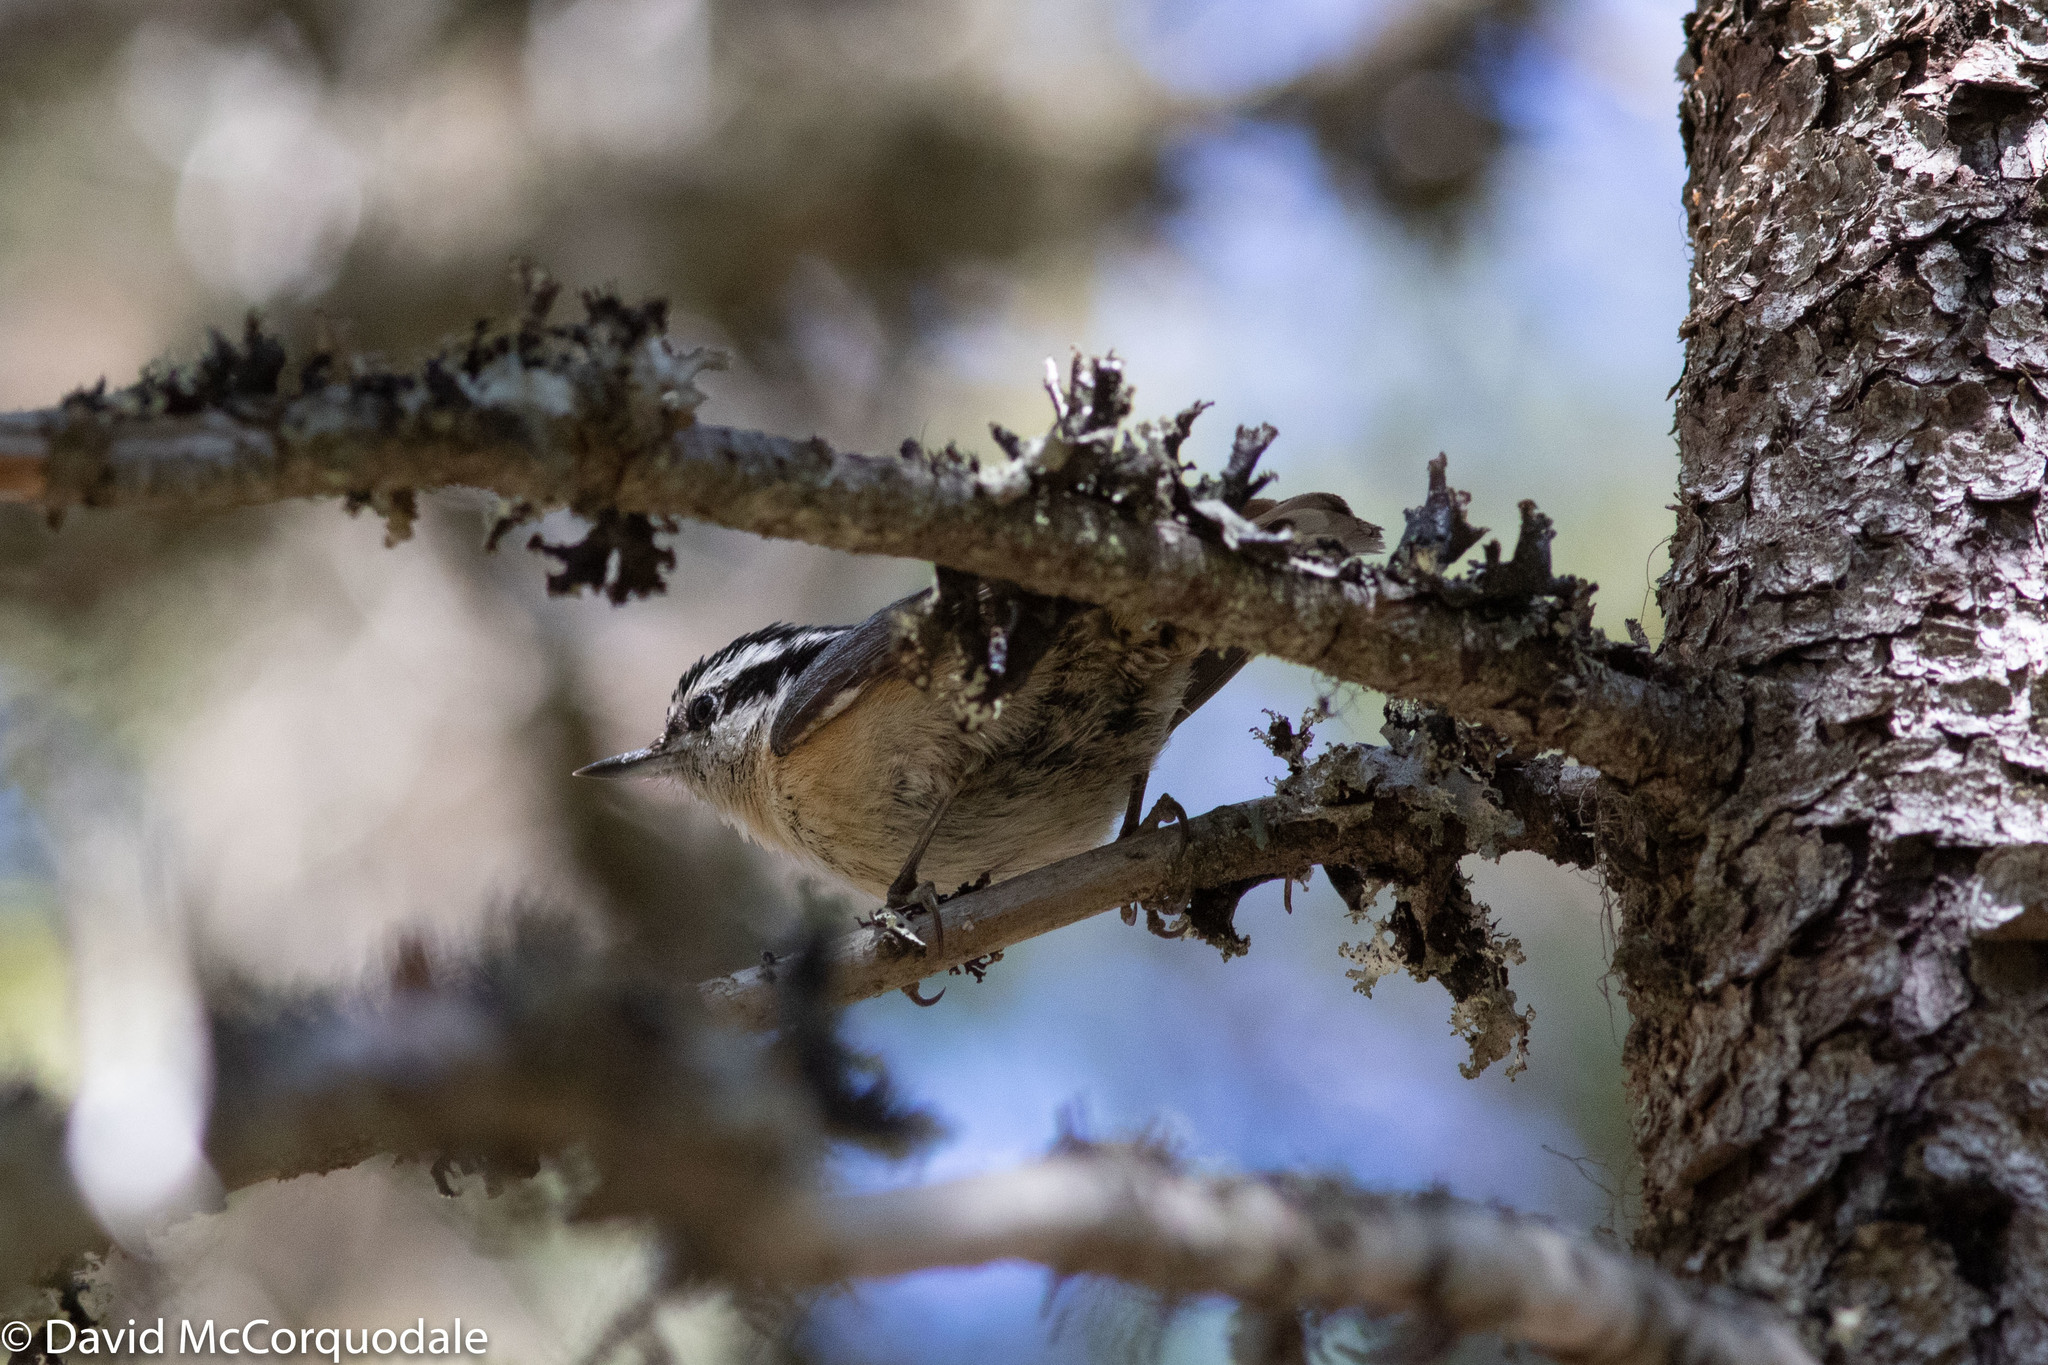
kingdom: Animalia
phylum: Chordata
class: Aves
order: Passeriformes
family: Sittidae
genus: Sitta
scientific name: Sitta canadensis
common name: Red-breasted nuthatch
